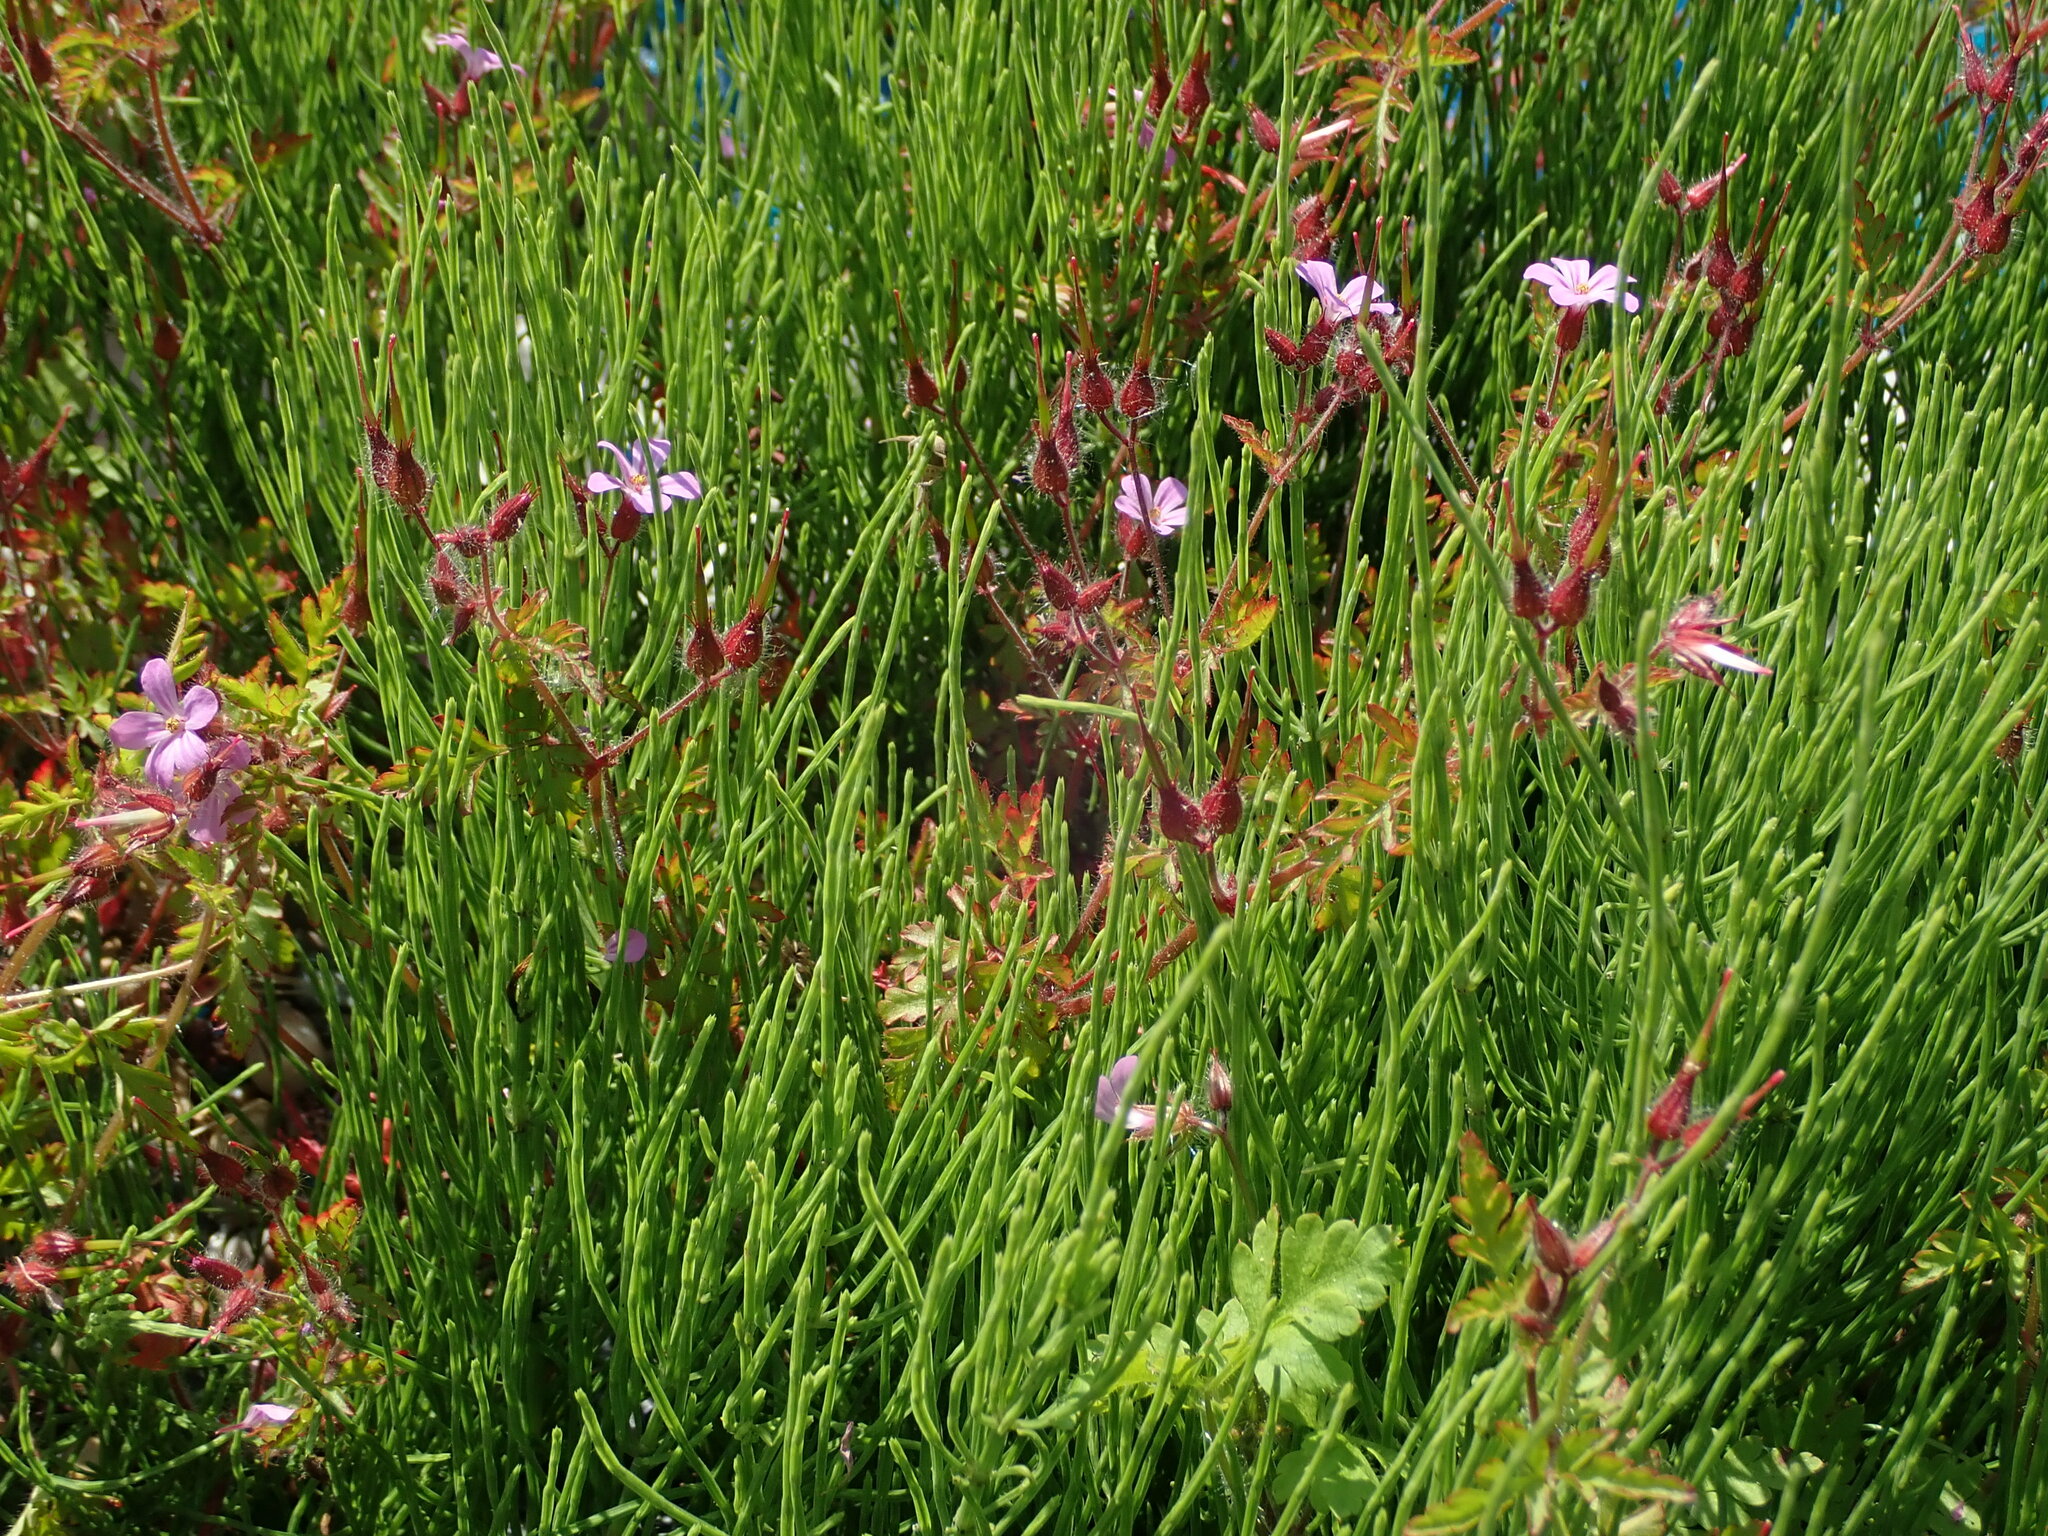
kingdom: Plantae
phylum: Tracheophyta
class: Magnoliopsida
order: Geraniales
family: Geraniaceae
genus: Geranium
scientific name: Geranium robertianum
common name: Herb-robert
